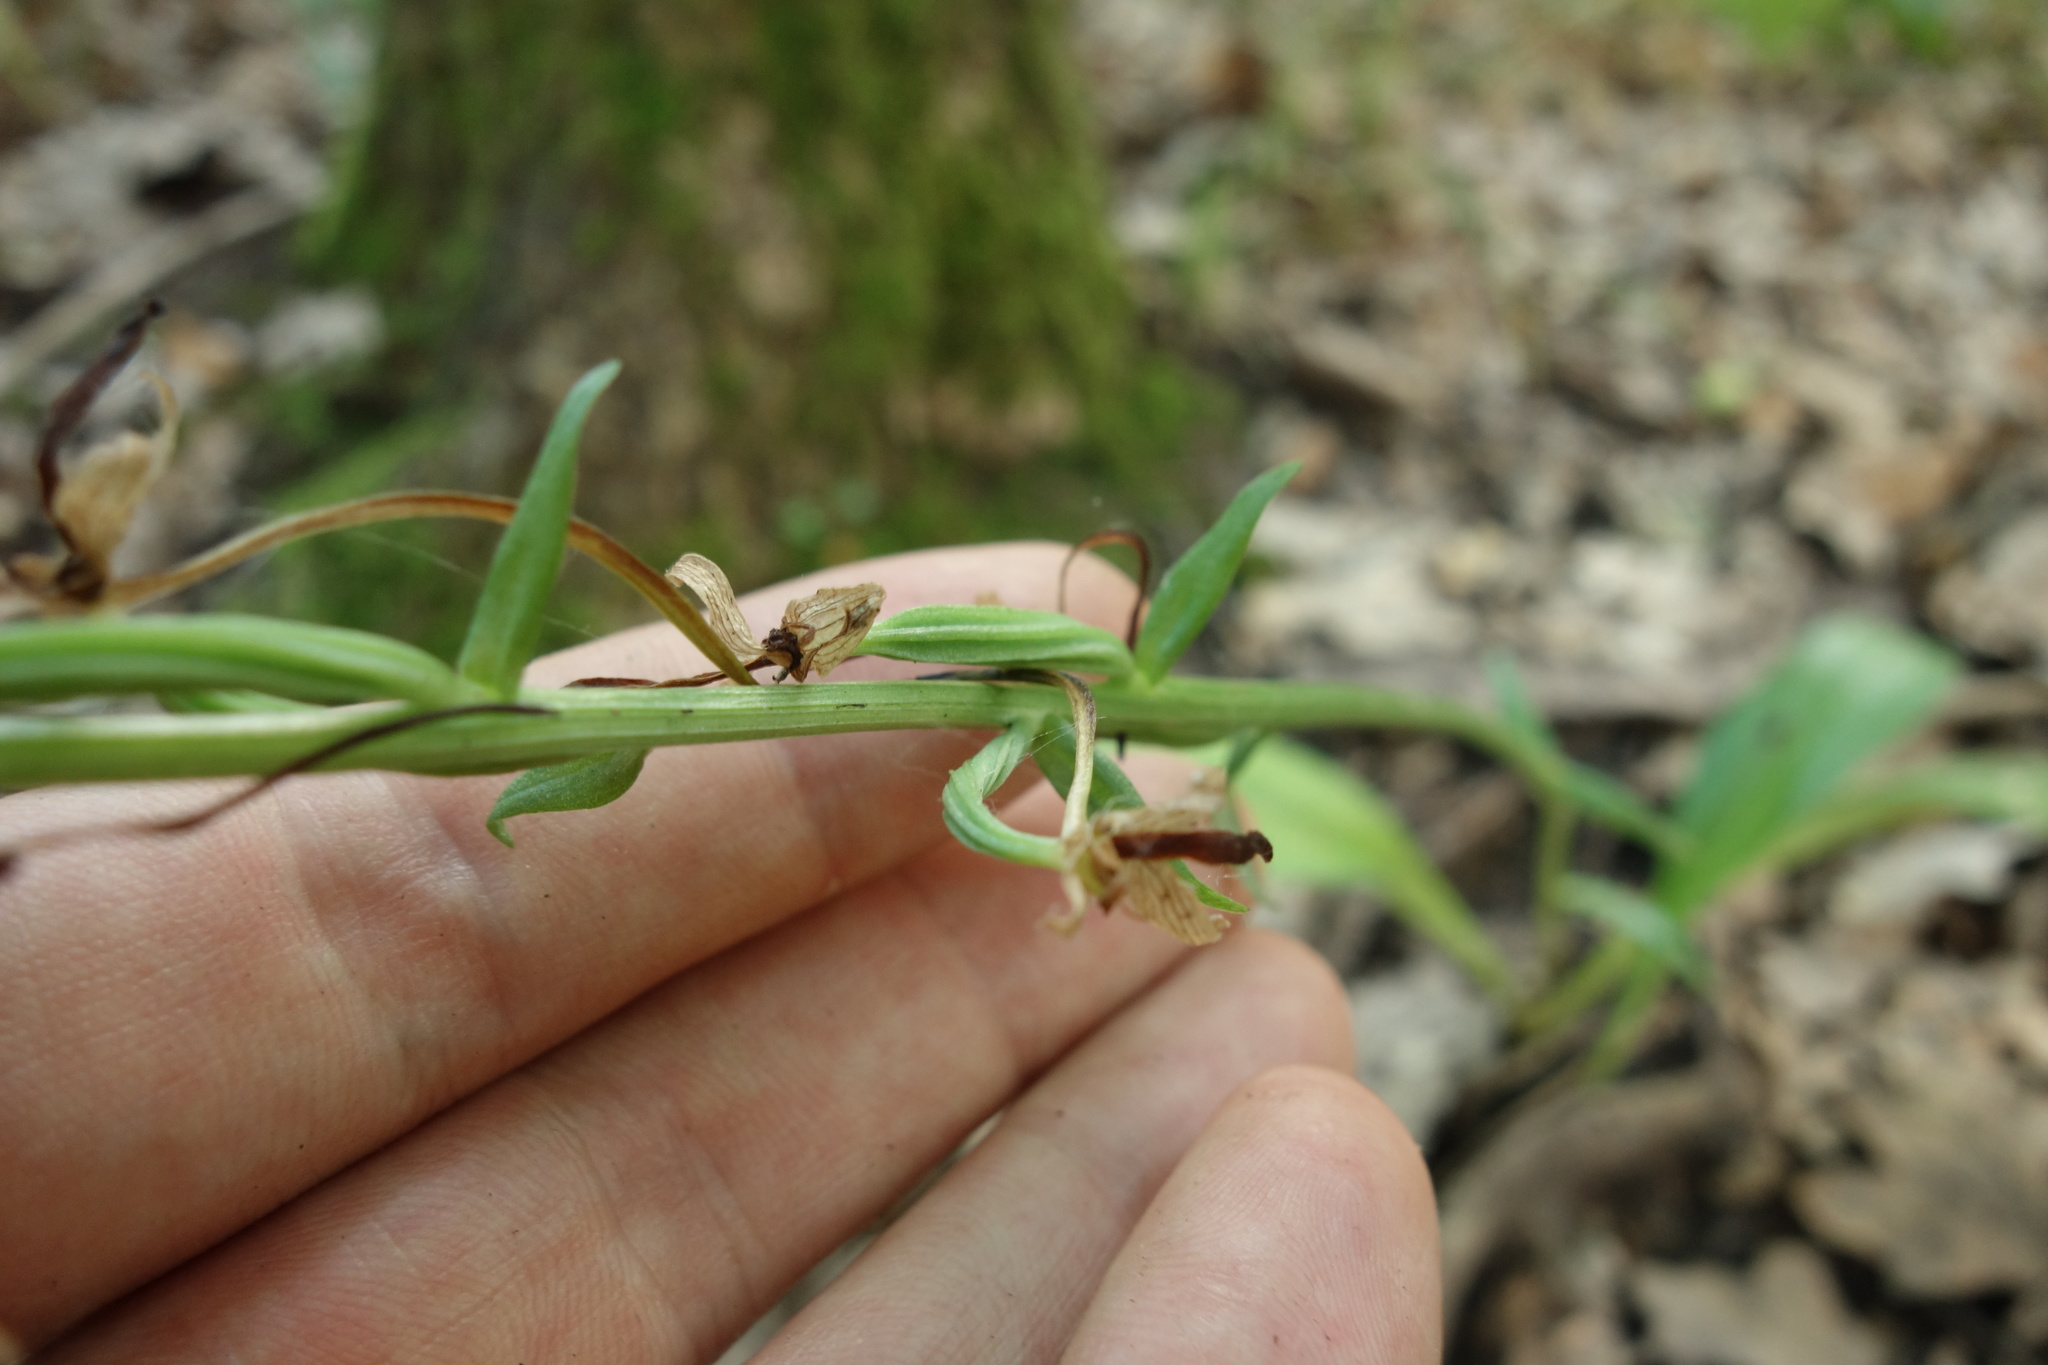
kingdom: Plantae
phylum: Tracheophyta
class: Liliopsida
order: Asparagales
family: Orchidaceae
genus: Platanthera
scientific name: Platanthera chlorantha
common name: Greater butterfly-orchid
